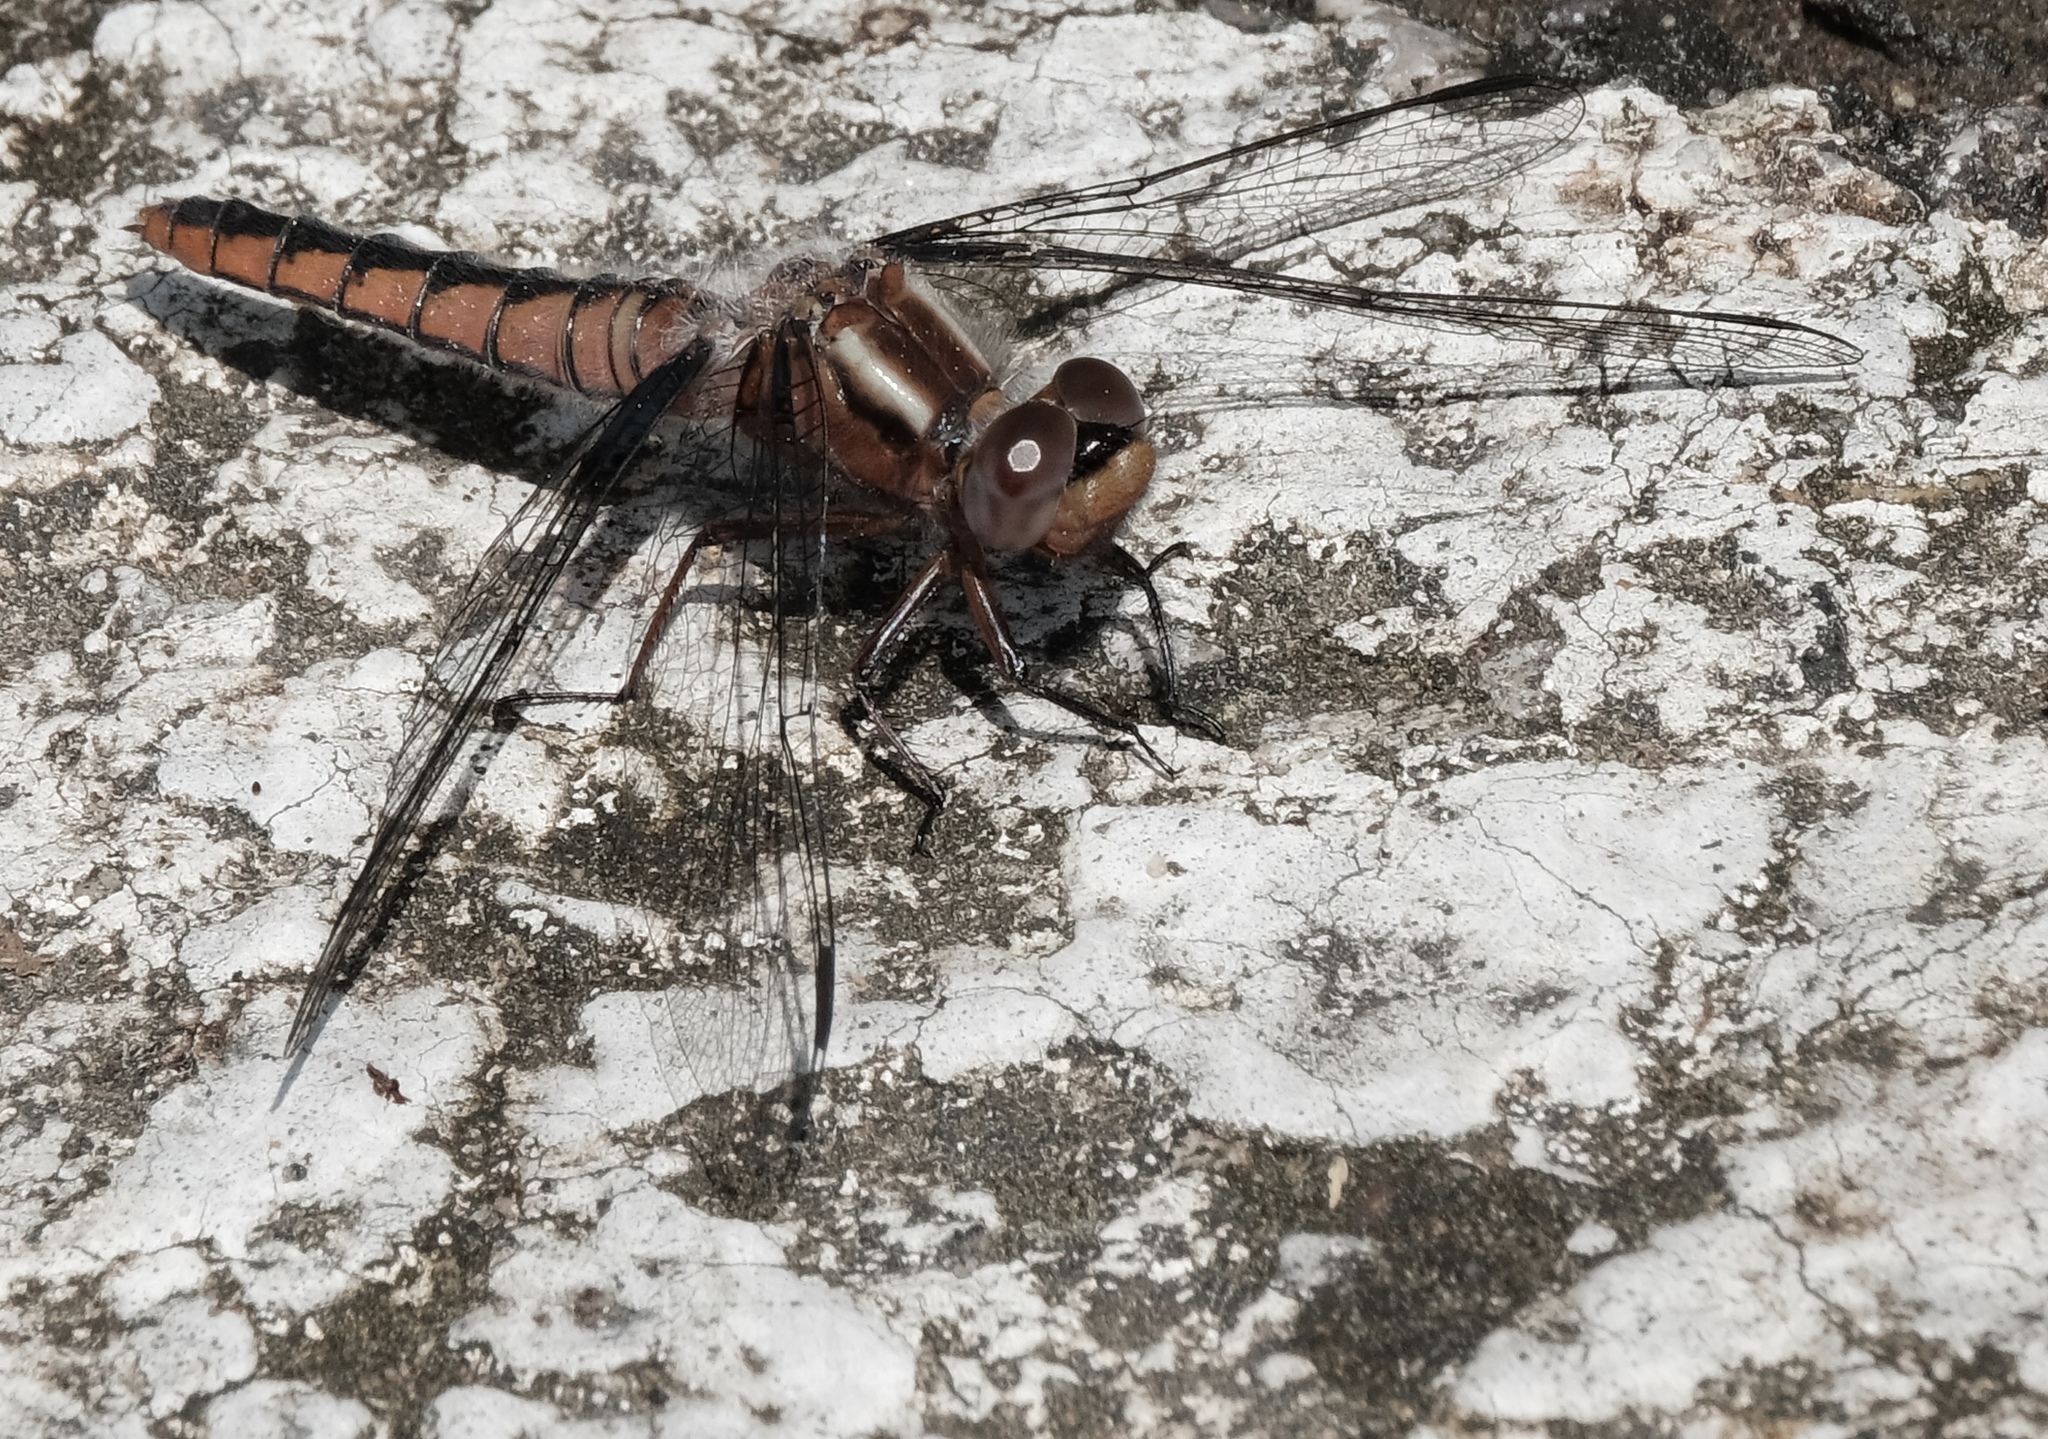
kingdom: Animalia
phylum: Arthropoda
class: Insecta
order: Odonata
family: Libellulidae
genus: Ladona
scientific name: Ladona deplanata
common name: Blue corporal
